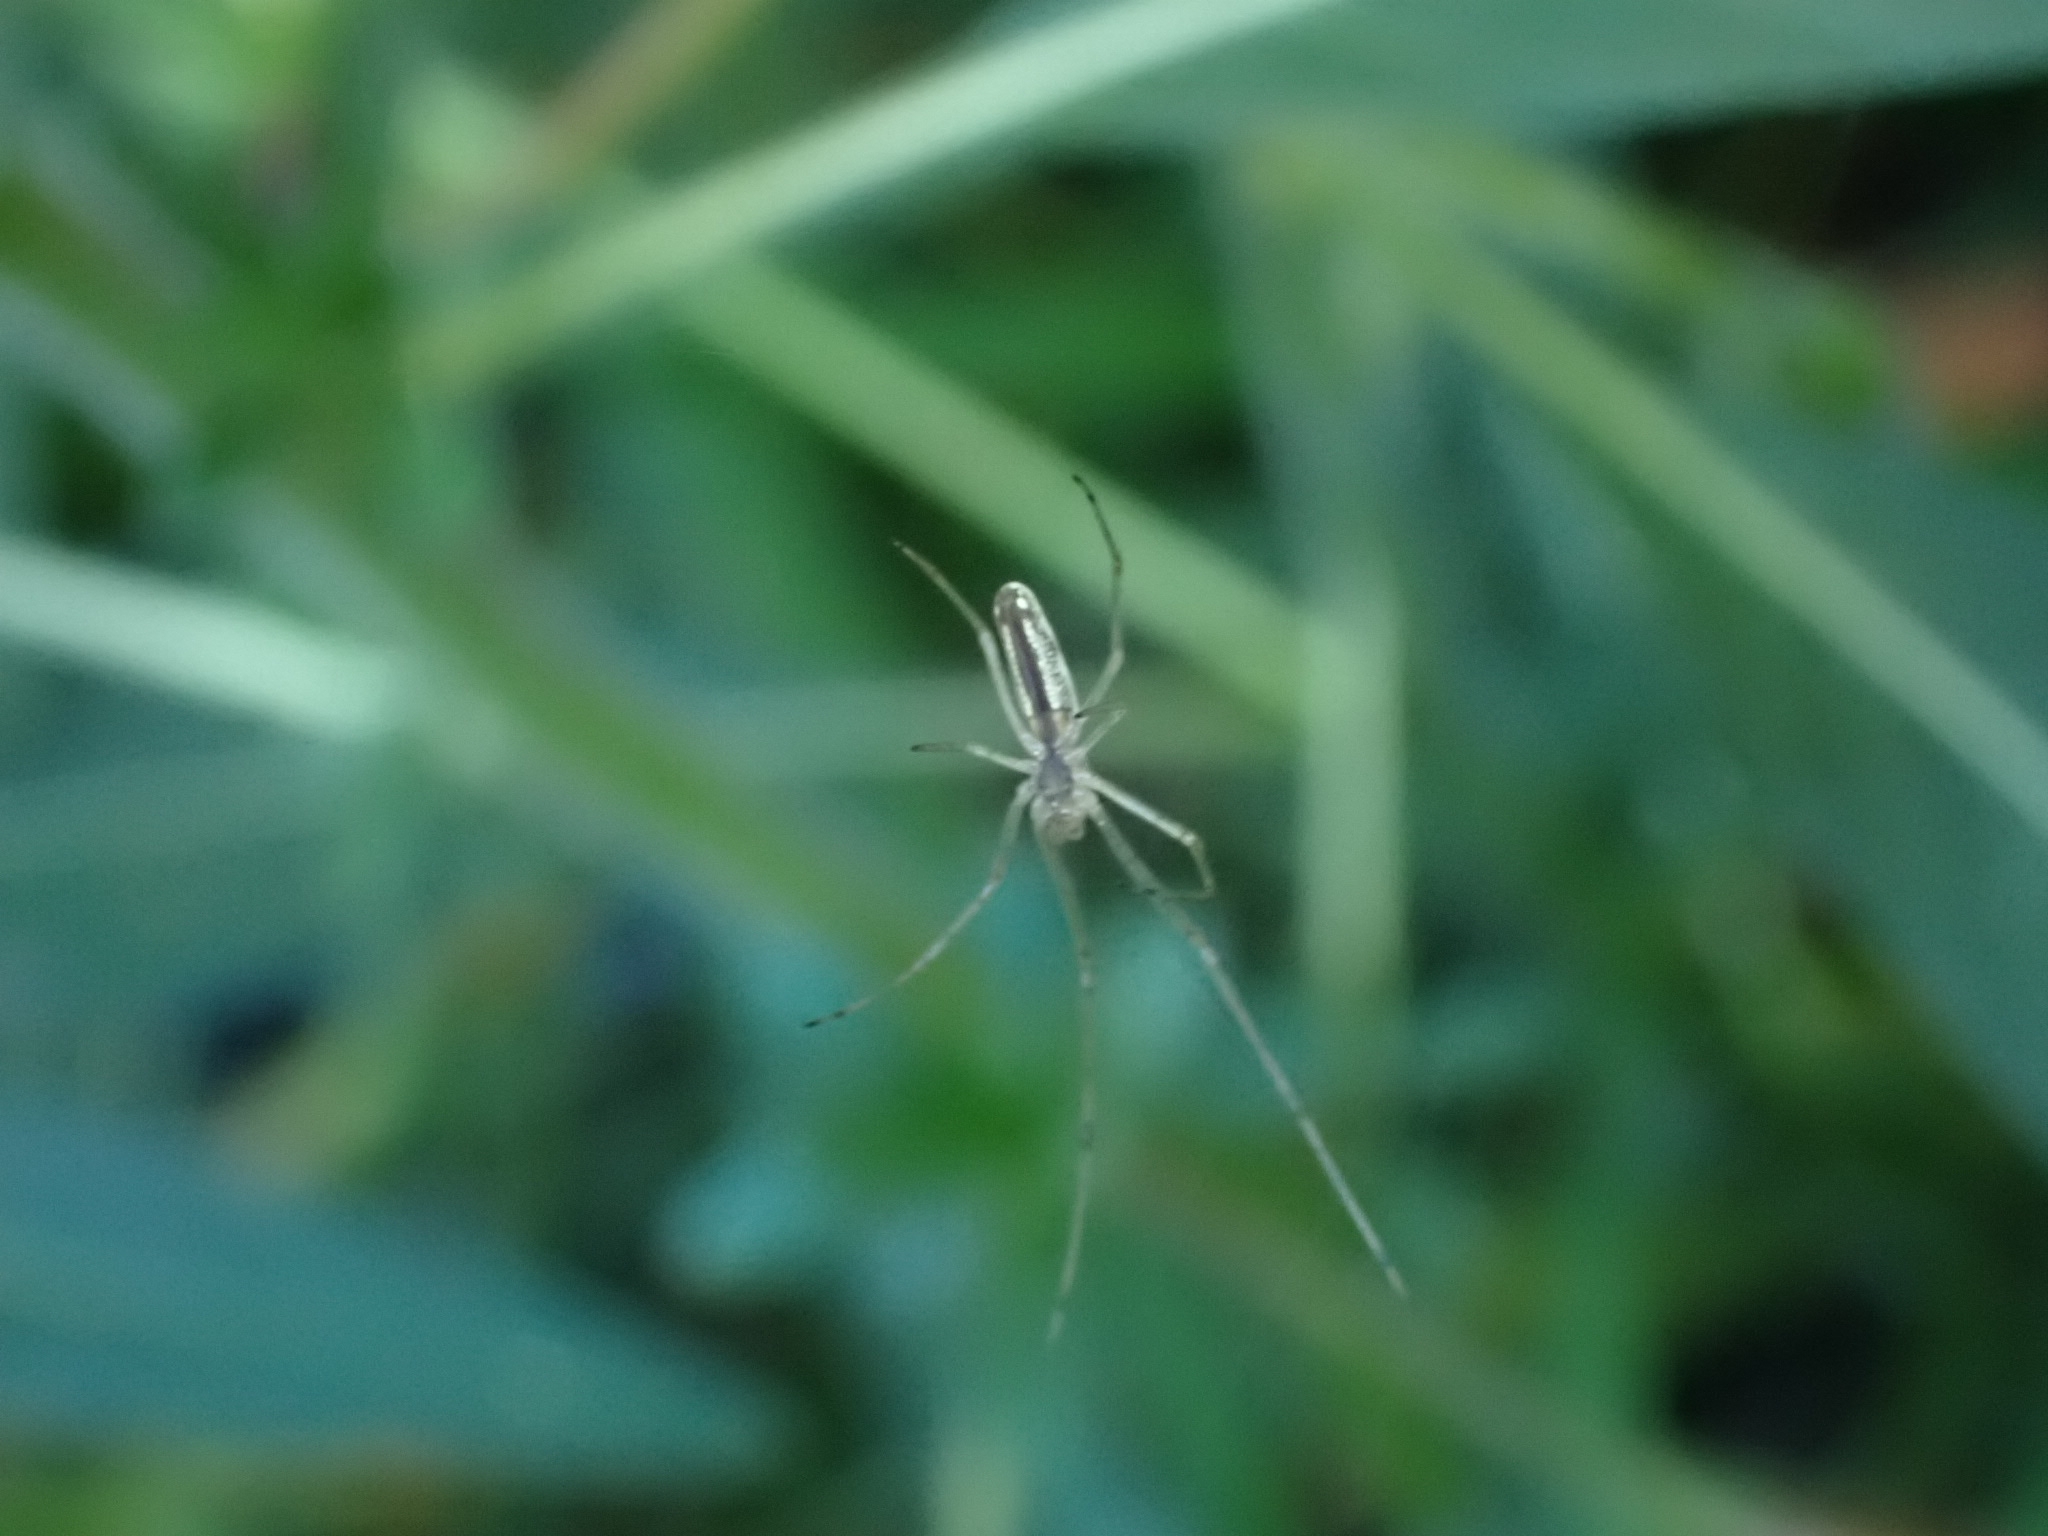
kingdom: Animalia
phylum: Arthropoda
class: Arachnida
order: Araneae
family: Tetragnathidae
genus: Tetragnatha
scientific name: Tetragnatha
